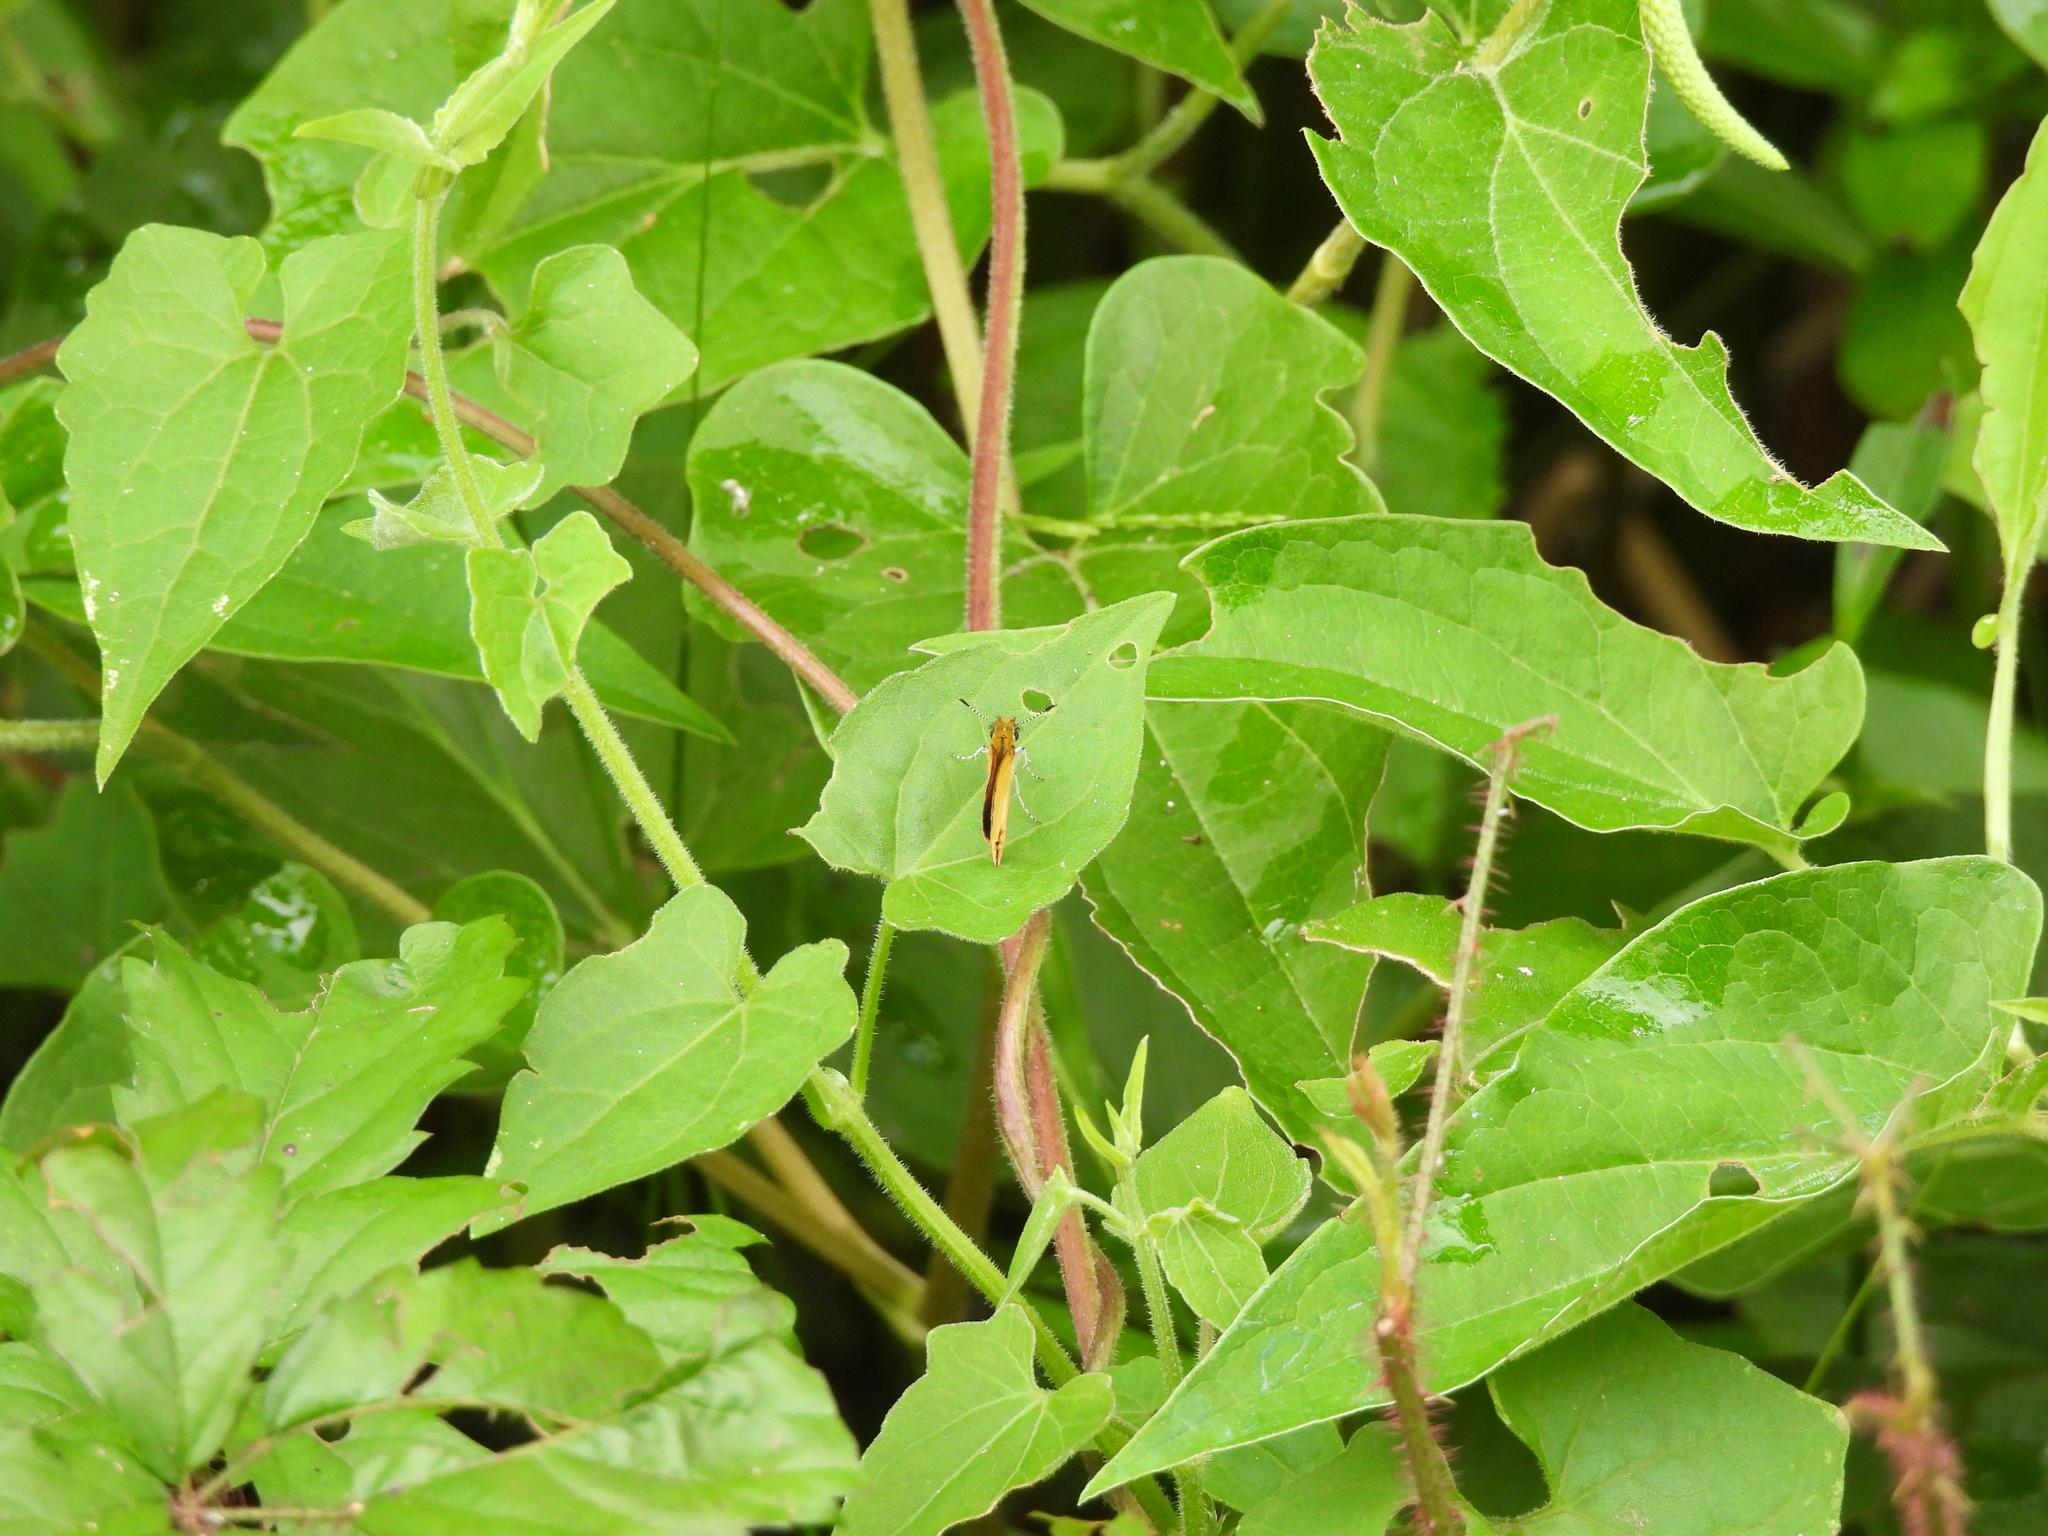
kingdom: Animalia
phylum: Arthropoda
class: Insecta
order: Lepidoptera
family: Hesperiidae
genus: Ancyloxypha
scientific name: Ancyloxypha numitor
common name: Least skipper
